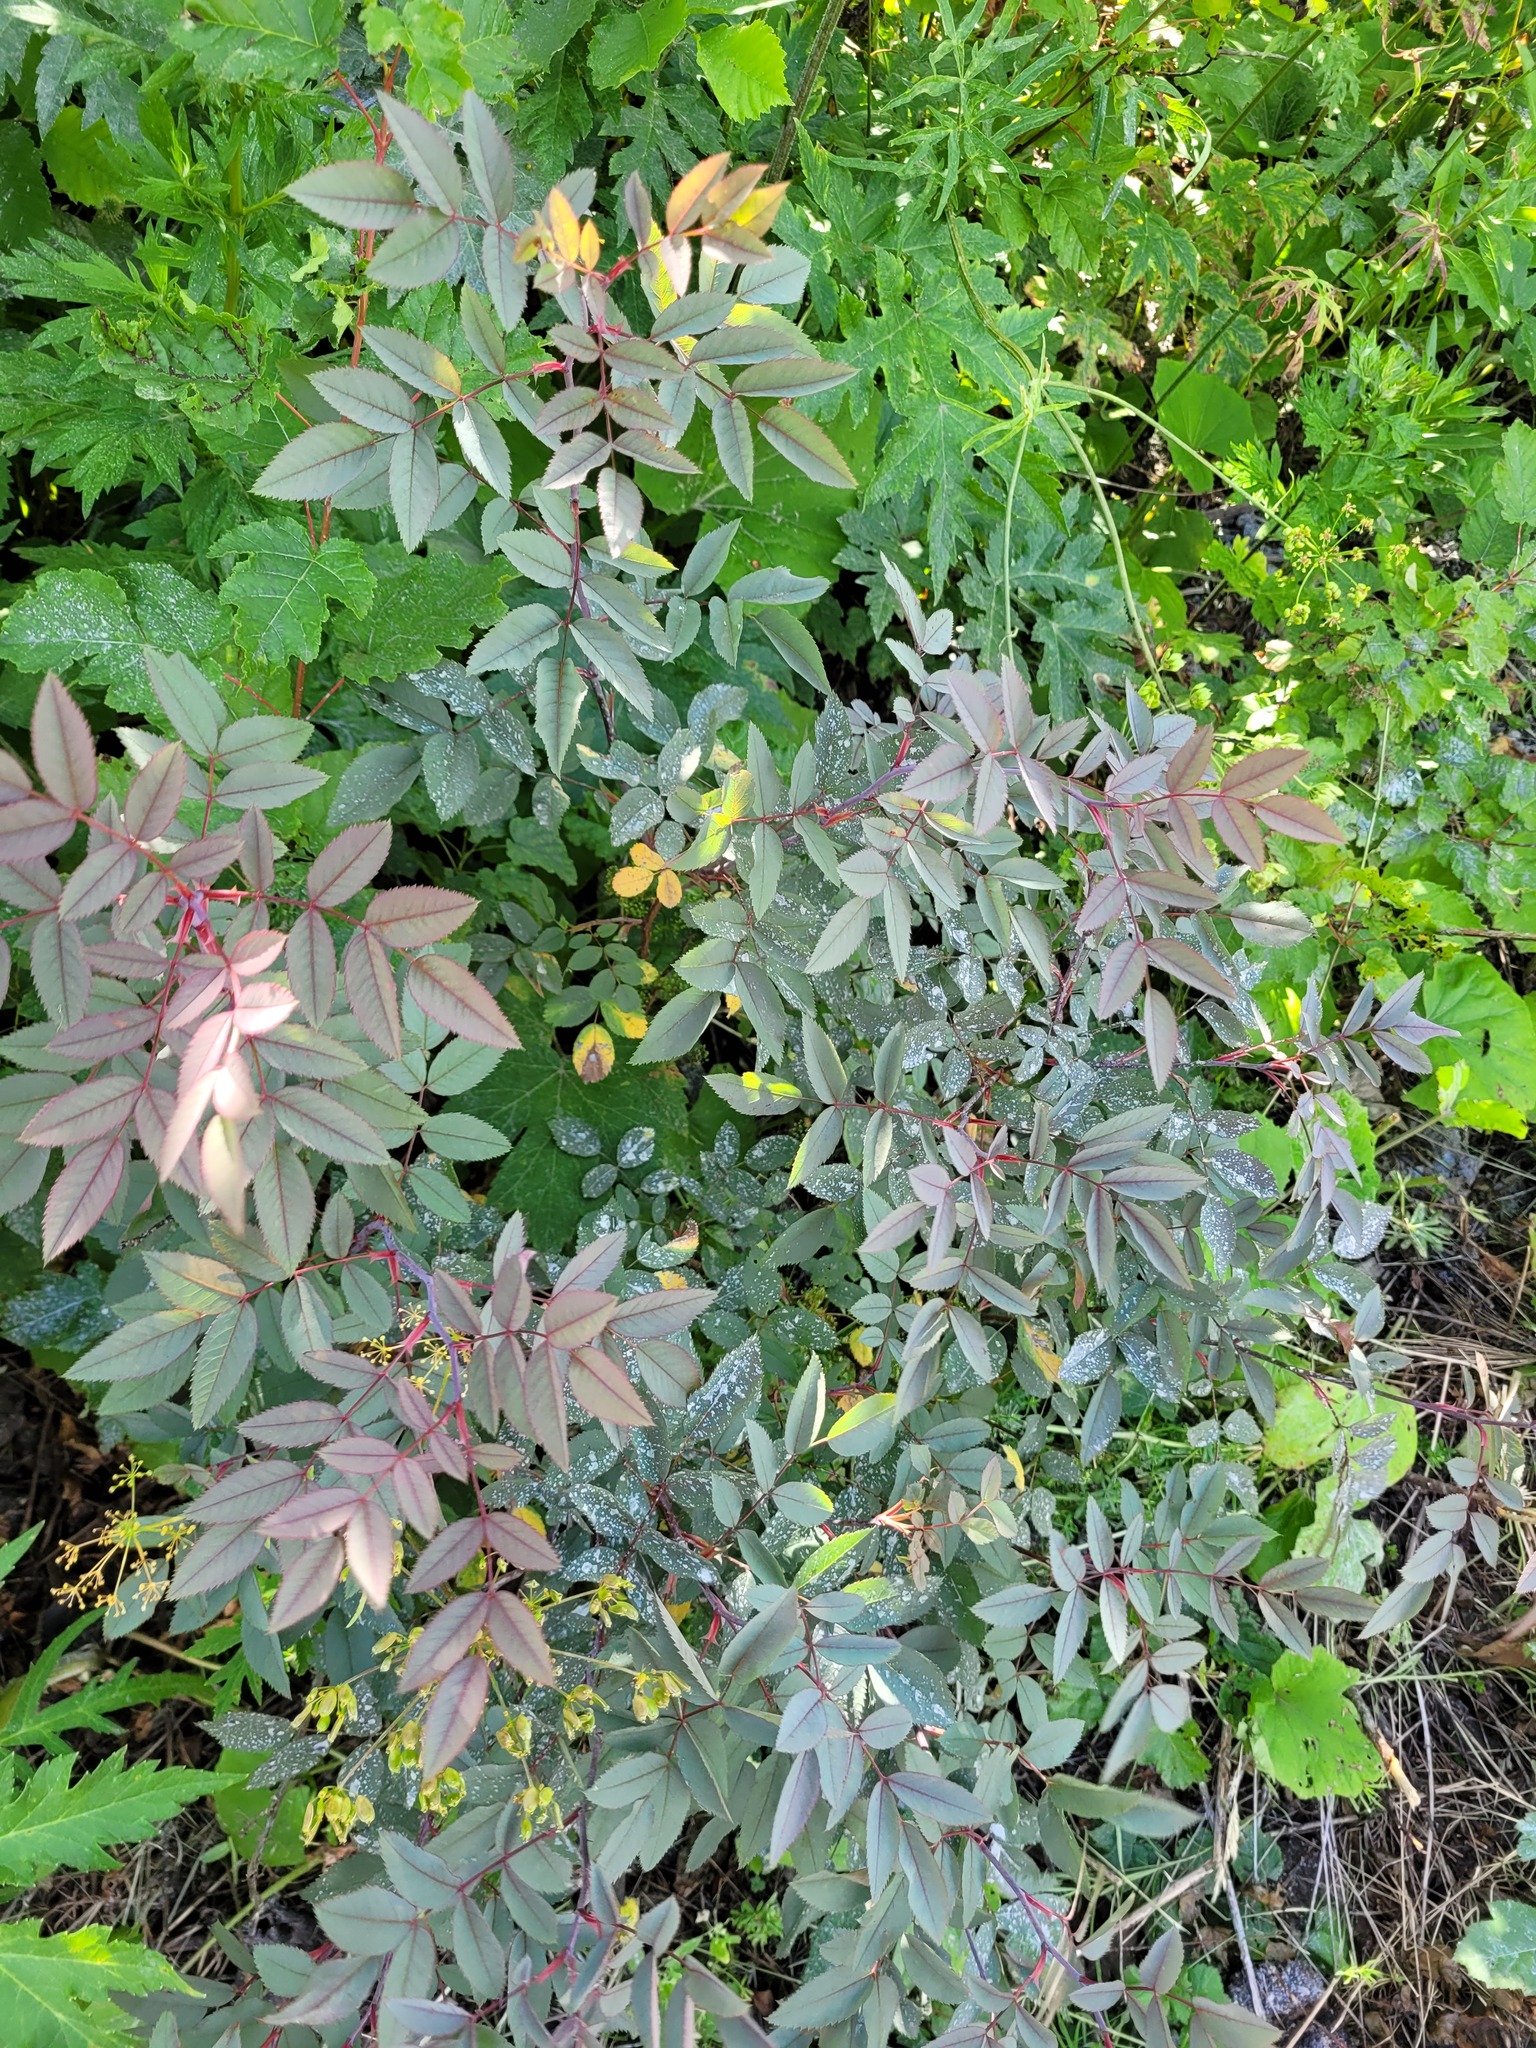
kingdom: Plantae
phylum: Tracheophyta
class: Magnoliopsida
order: Rosales
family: Rosaceae
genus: Rosa
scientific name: Rosa glauca
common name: Redleaf rose
